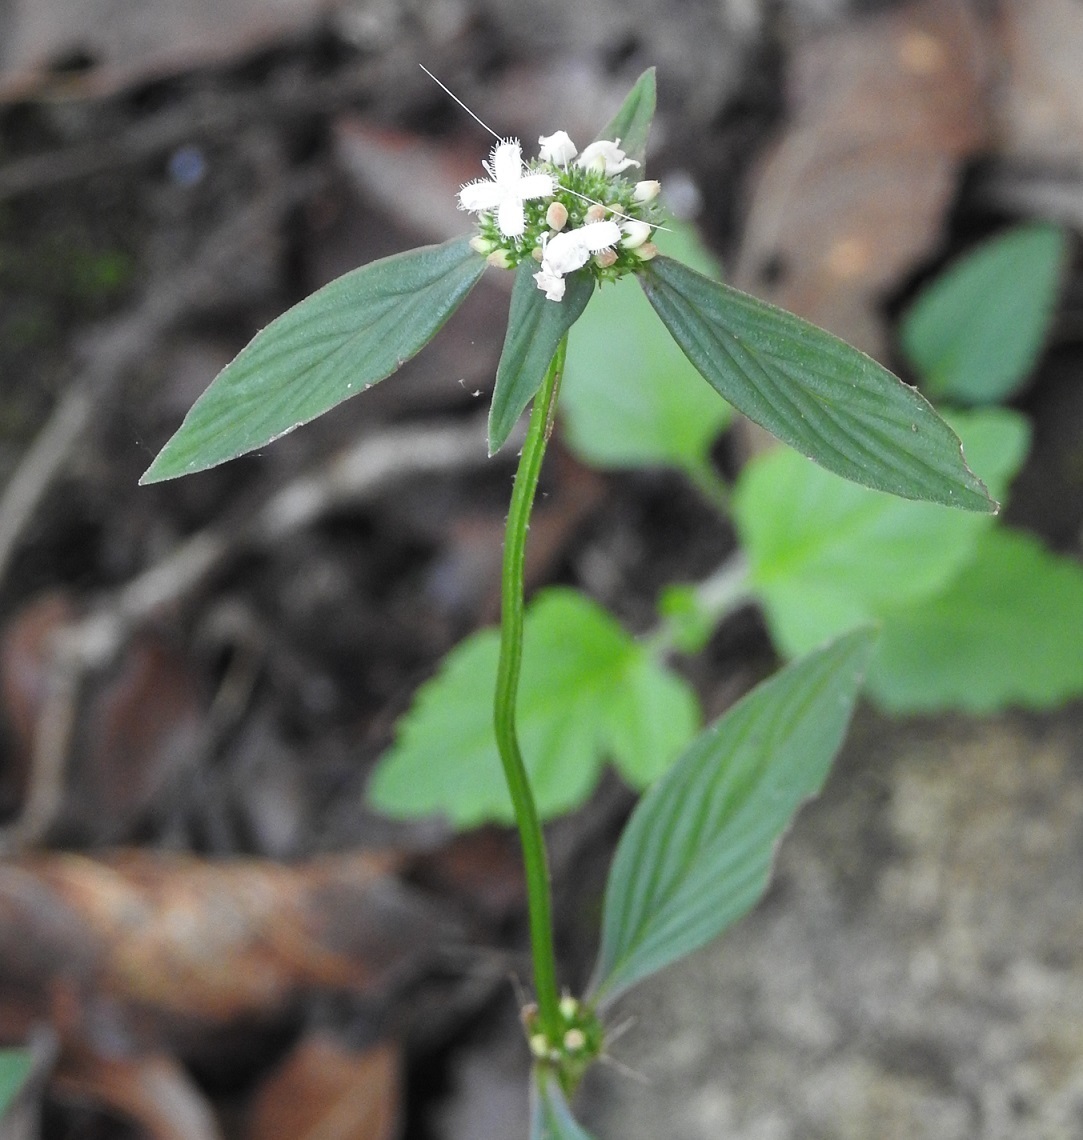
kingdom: Plantae
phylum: Tracheophyta
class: Magnoliopsida
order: Gentianales
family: Rubiaceae
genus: Spermacoce
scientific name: Spermacoce remota
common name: Woodland false buttonweed
